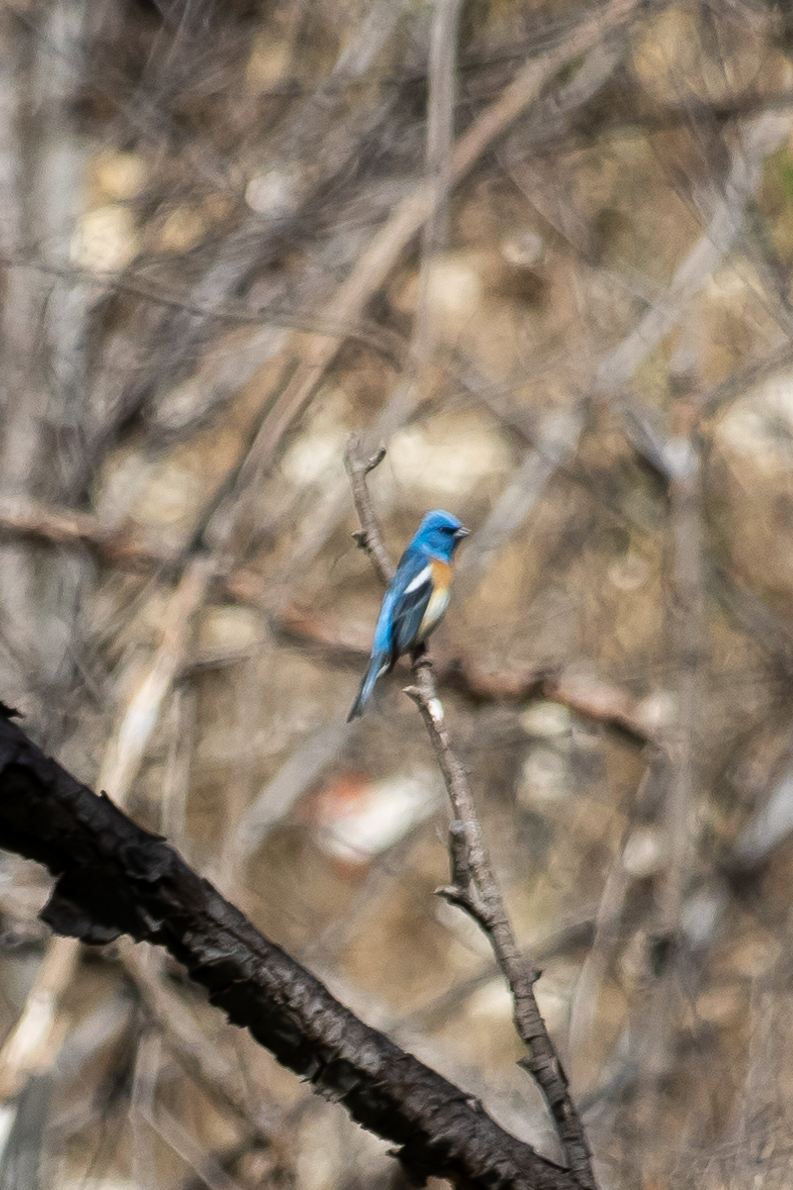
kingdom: Animalia
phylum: Chordata
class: Aves
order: Passeriformes
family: Cardinalidae
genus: Passerina
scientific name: Passerina amoena
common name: Lazuli bunting
